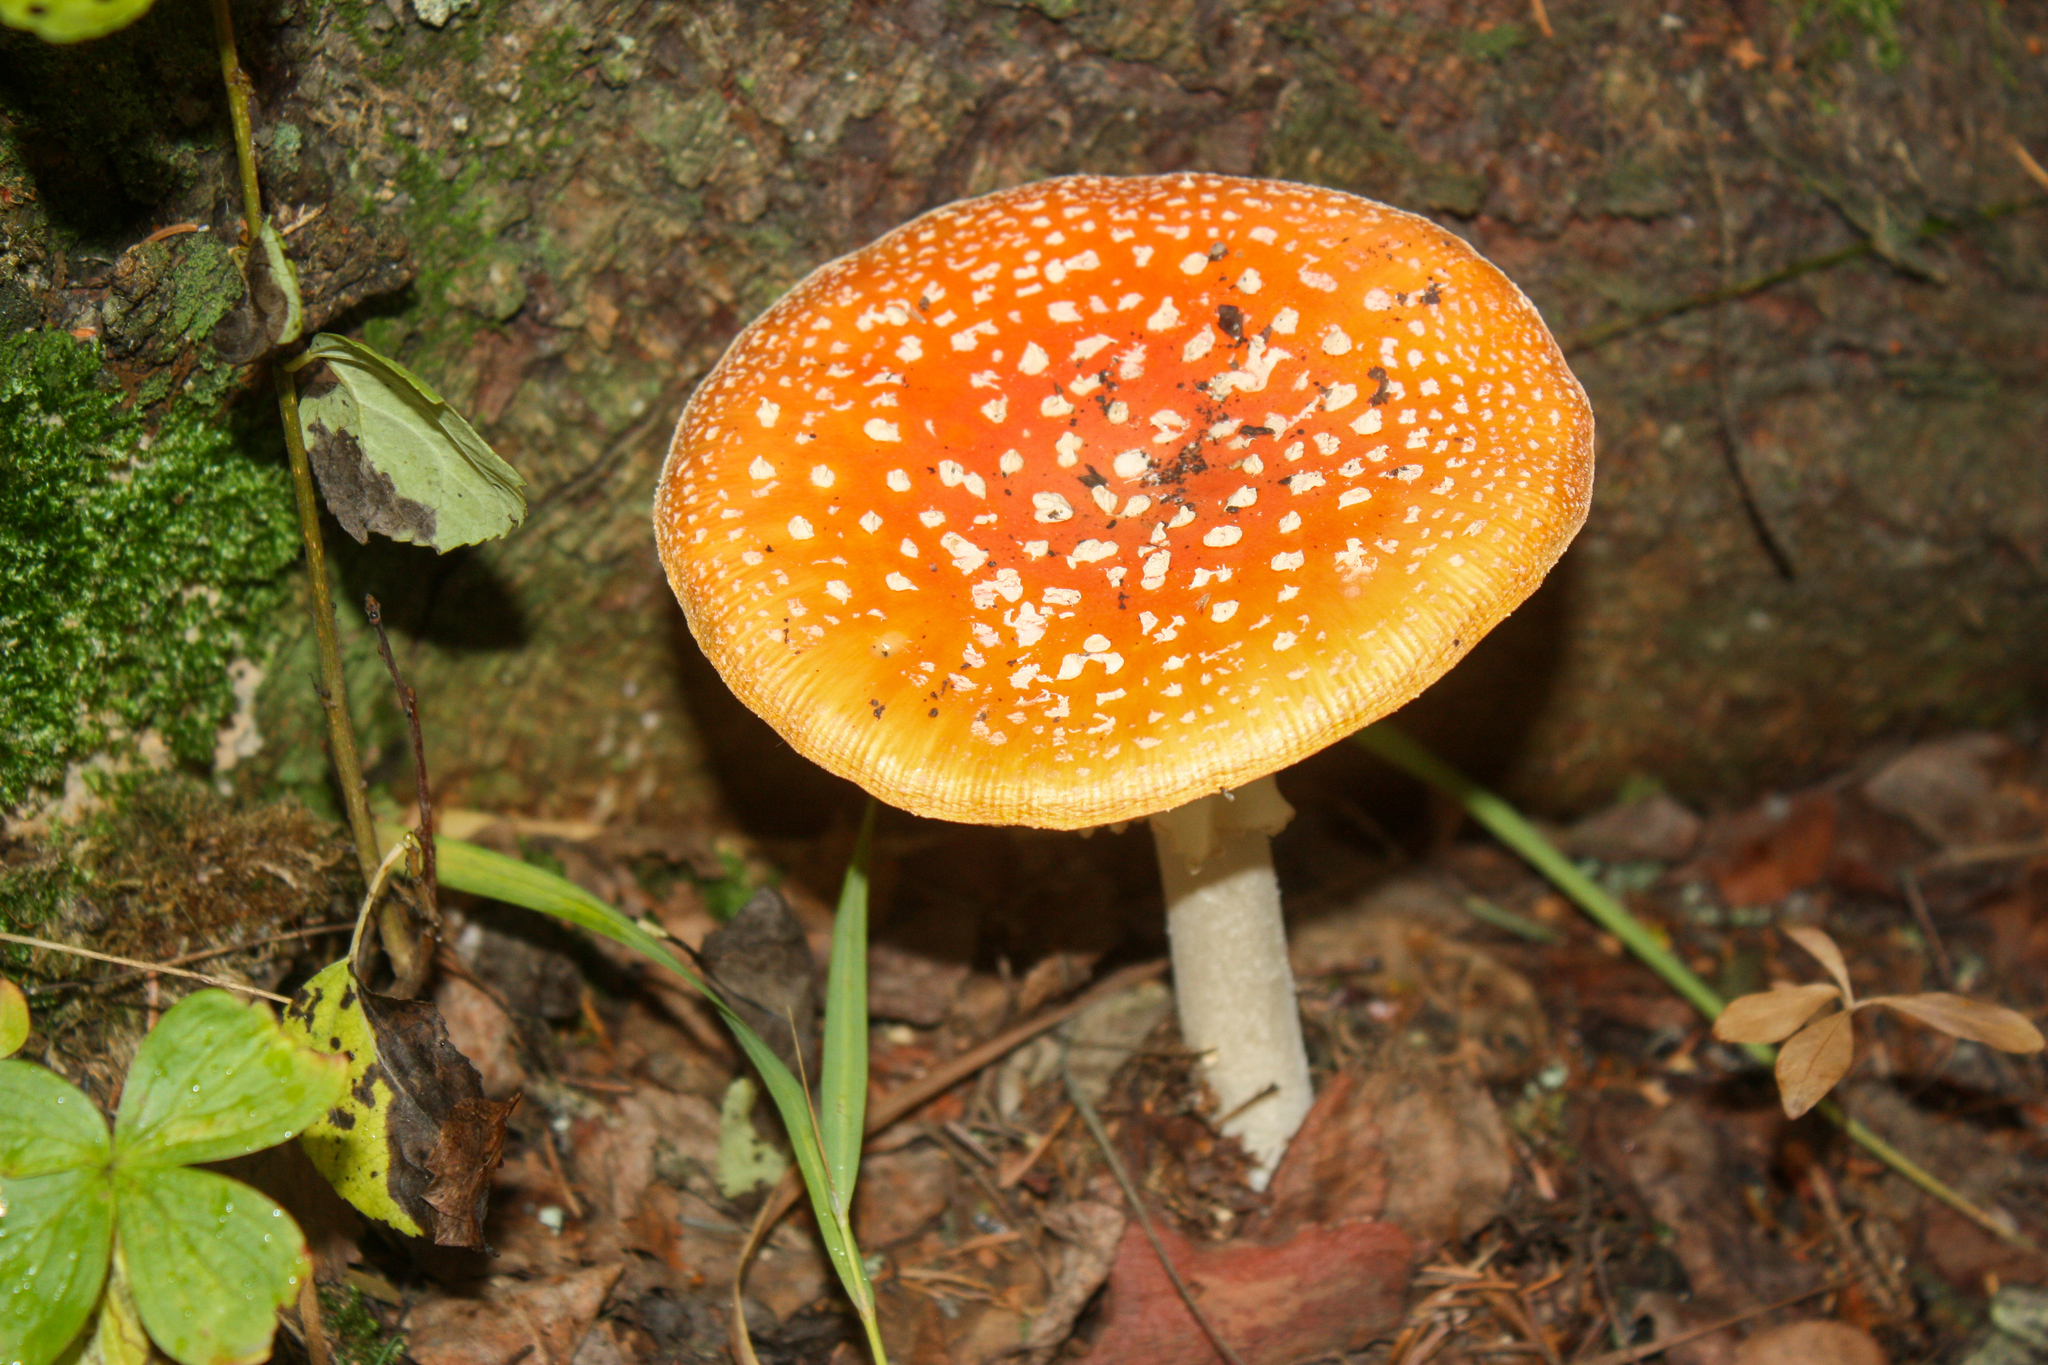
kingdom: Fungi
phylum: Basidiomycota
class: Agaricomycetes
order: Agaricales
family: Amanitaceae
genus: Amanita
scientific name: Amanita muscaria
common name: Fly agaric
